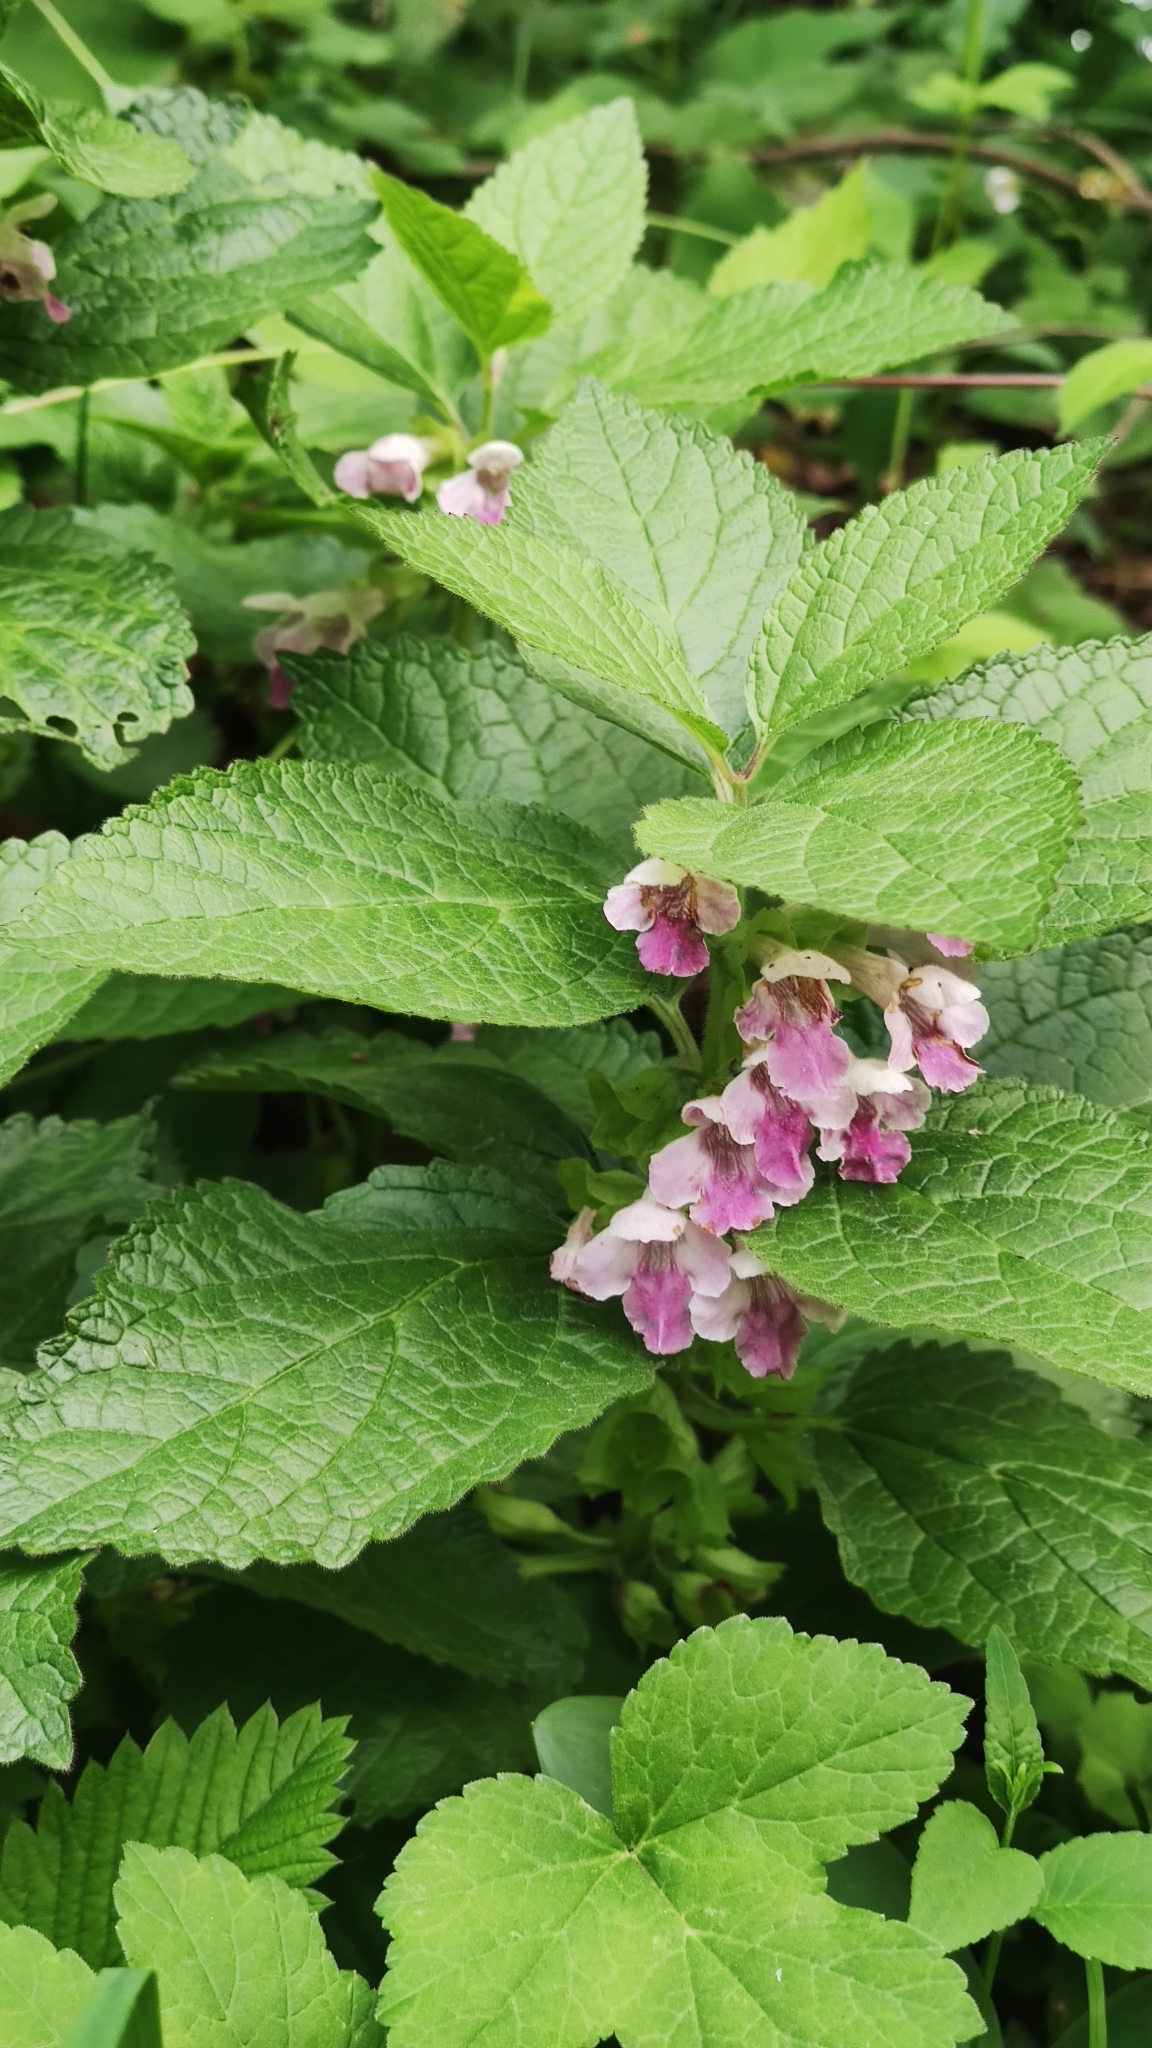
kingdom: Plantae
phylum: Tracheophyta
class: Magnoliopsida
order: Lamiales
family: Lamiaceae
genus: Melittis
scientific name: Melittis melissophyllum
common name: Bastard balm
